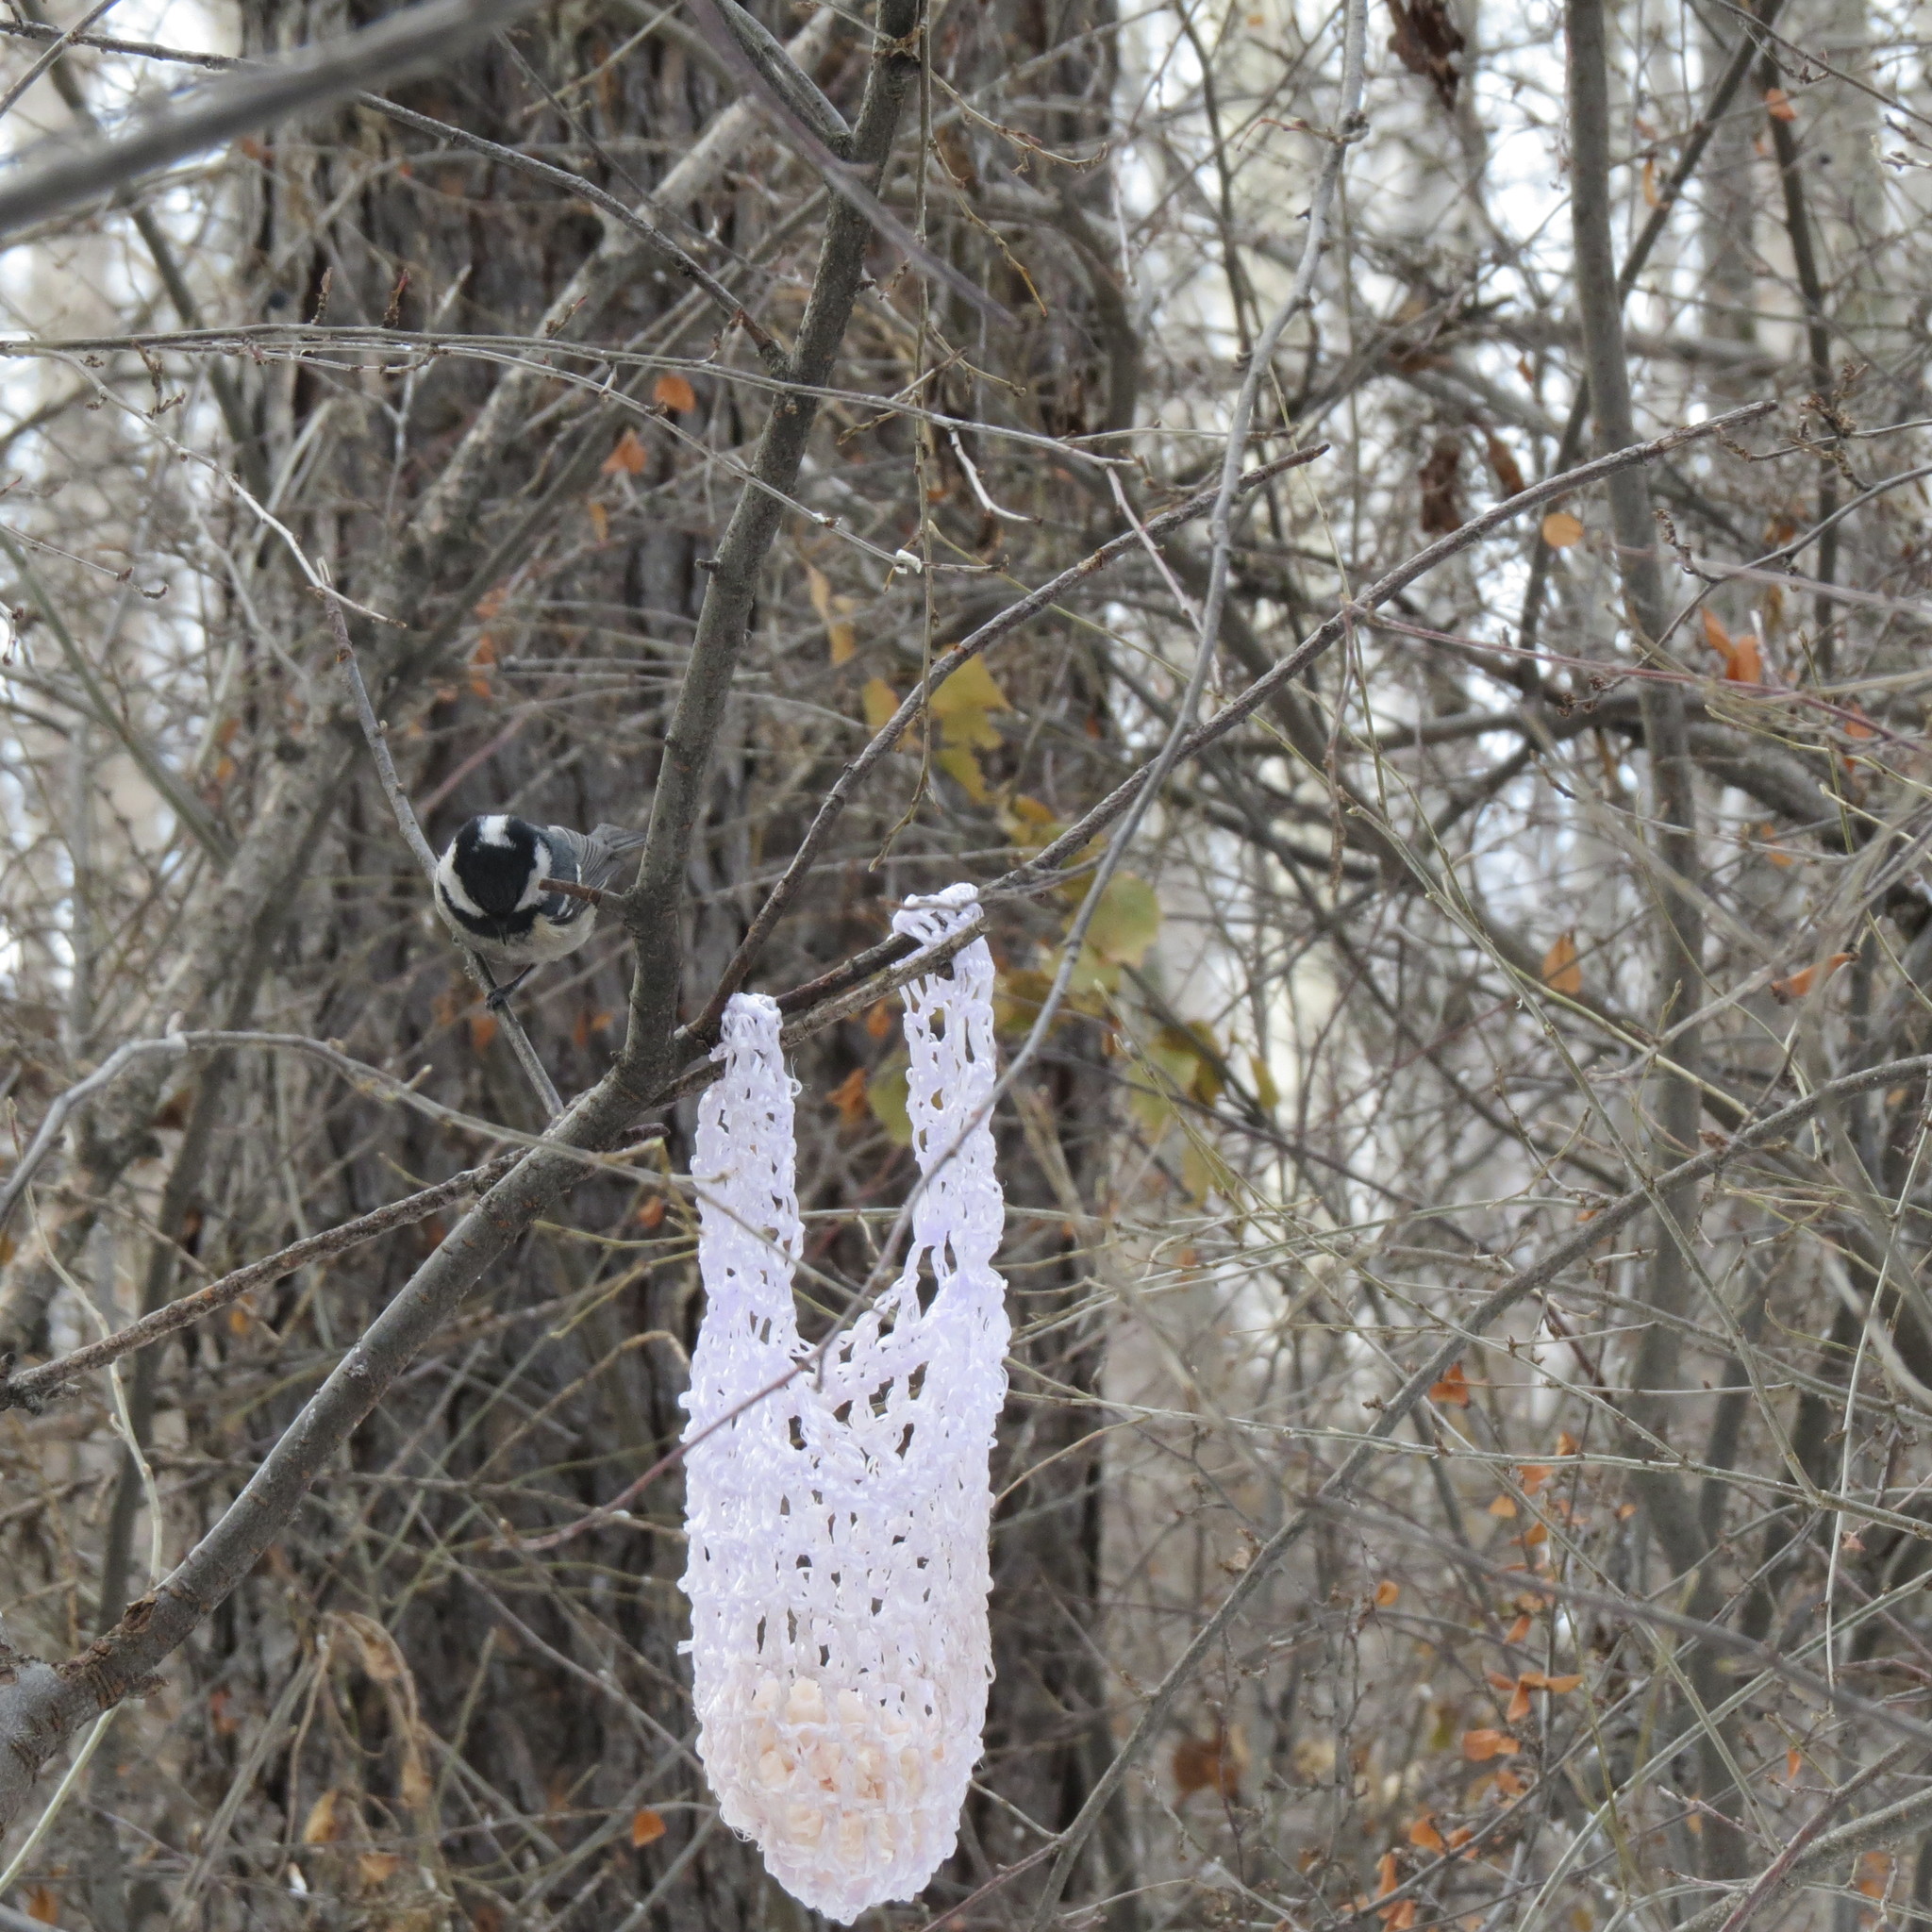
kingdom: Animalia
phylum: Chordata
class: Aves
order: Passeriformes
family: Paridae
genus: Periparus
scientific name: Periparus ater
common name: Coal tit
